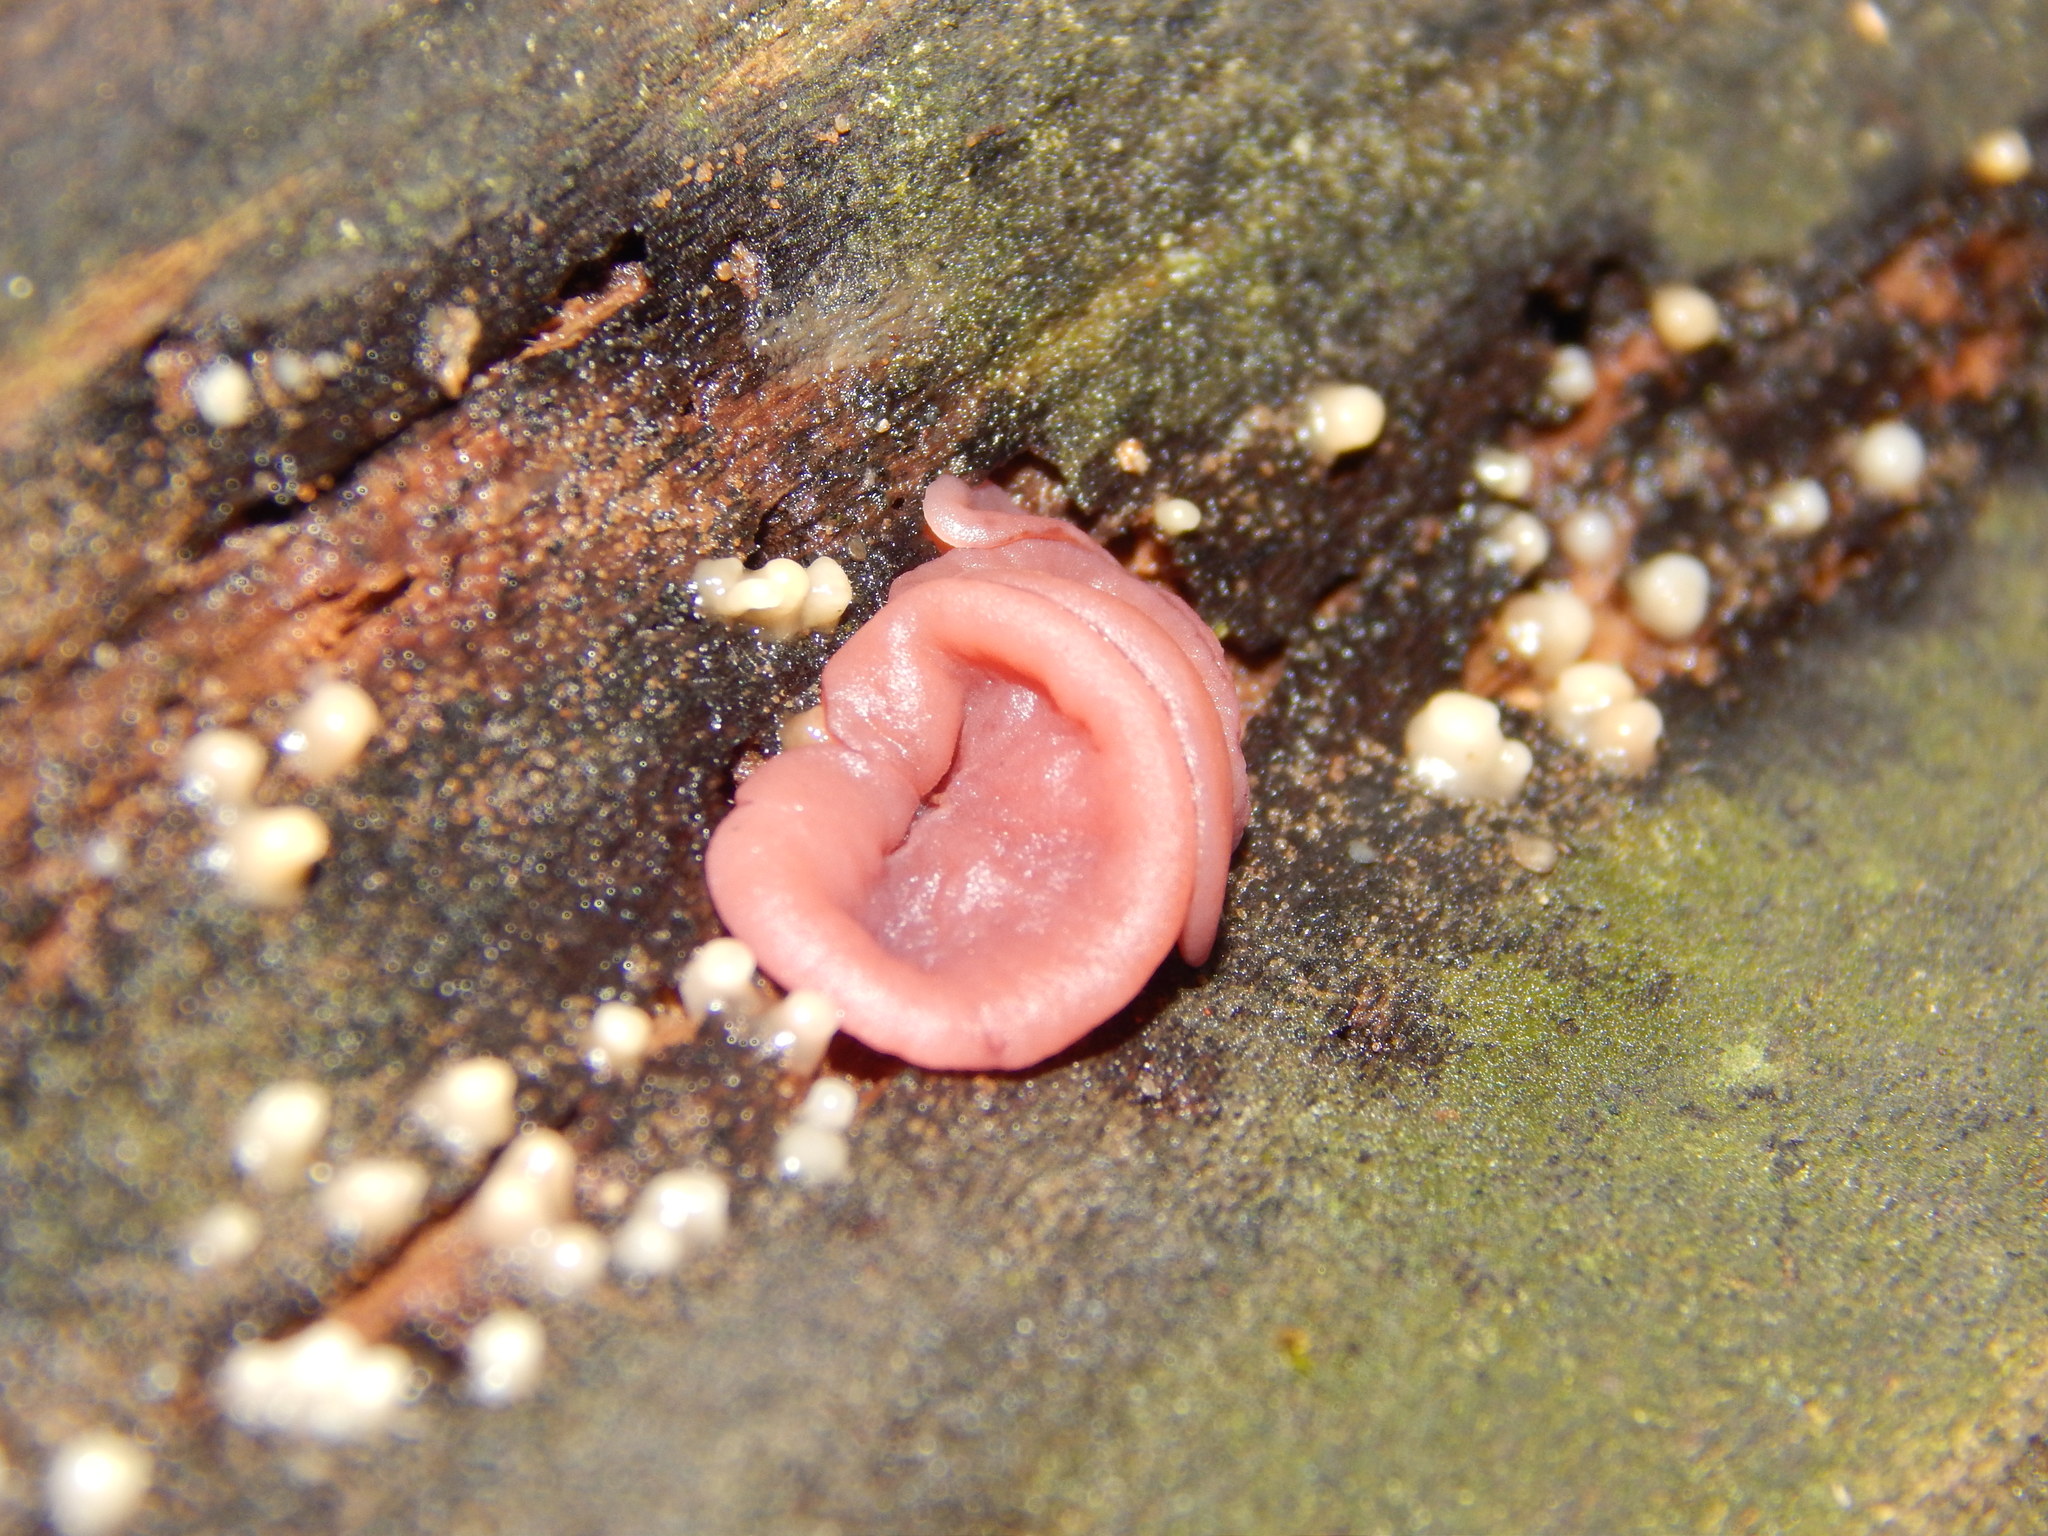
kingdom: Fungi
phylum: Ascomycota
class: Leotiomycetes
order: Helotiales
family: Gelatinodiscaceae
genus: Ascocoryne
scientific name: Ascocoryne sarcoides
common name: Purple jellydisc
